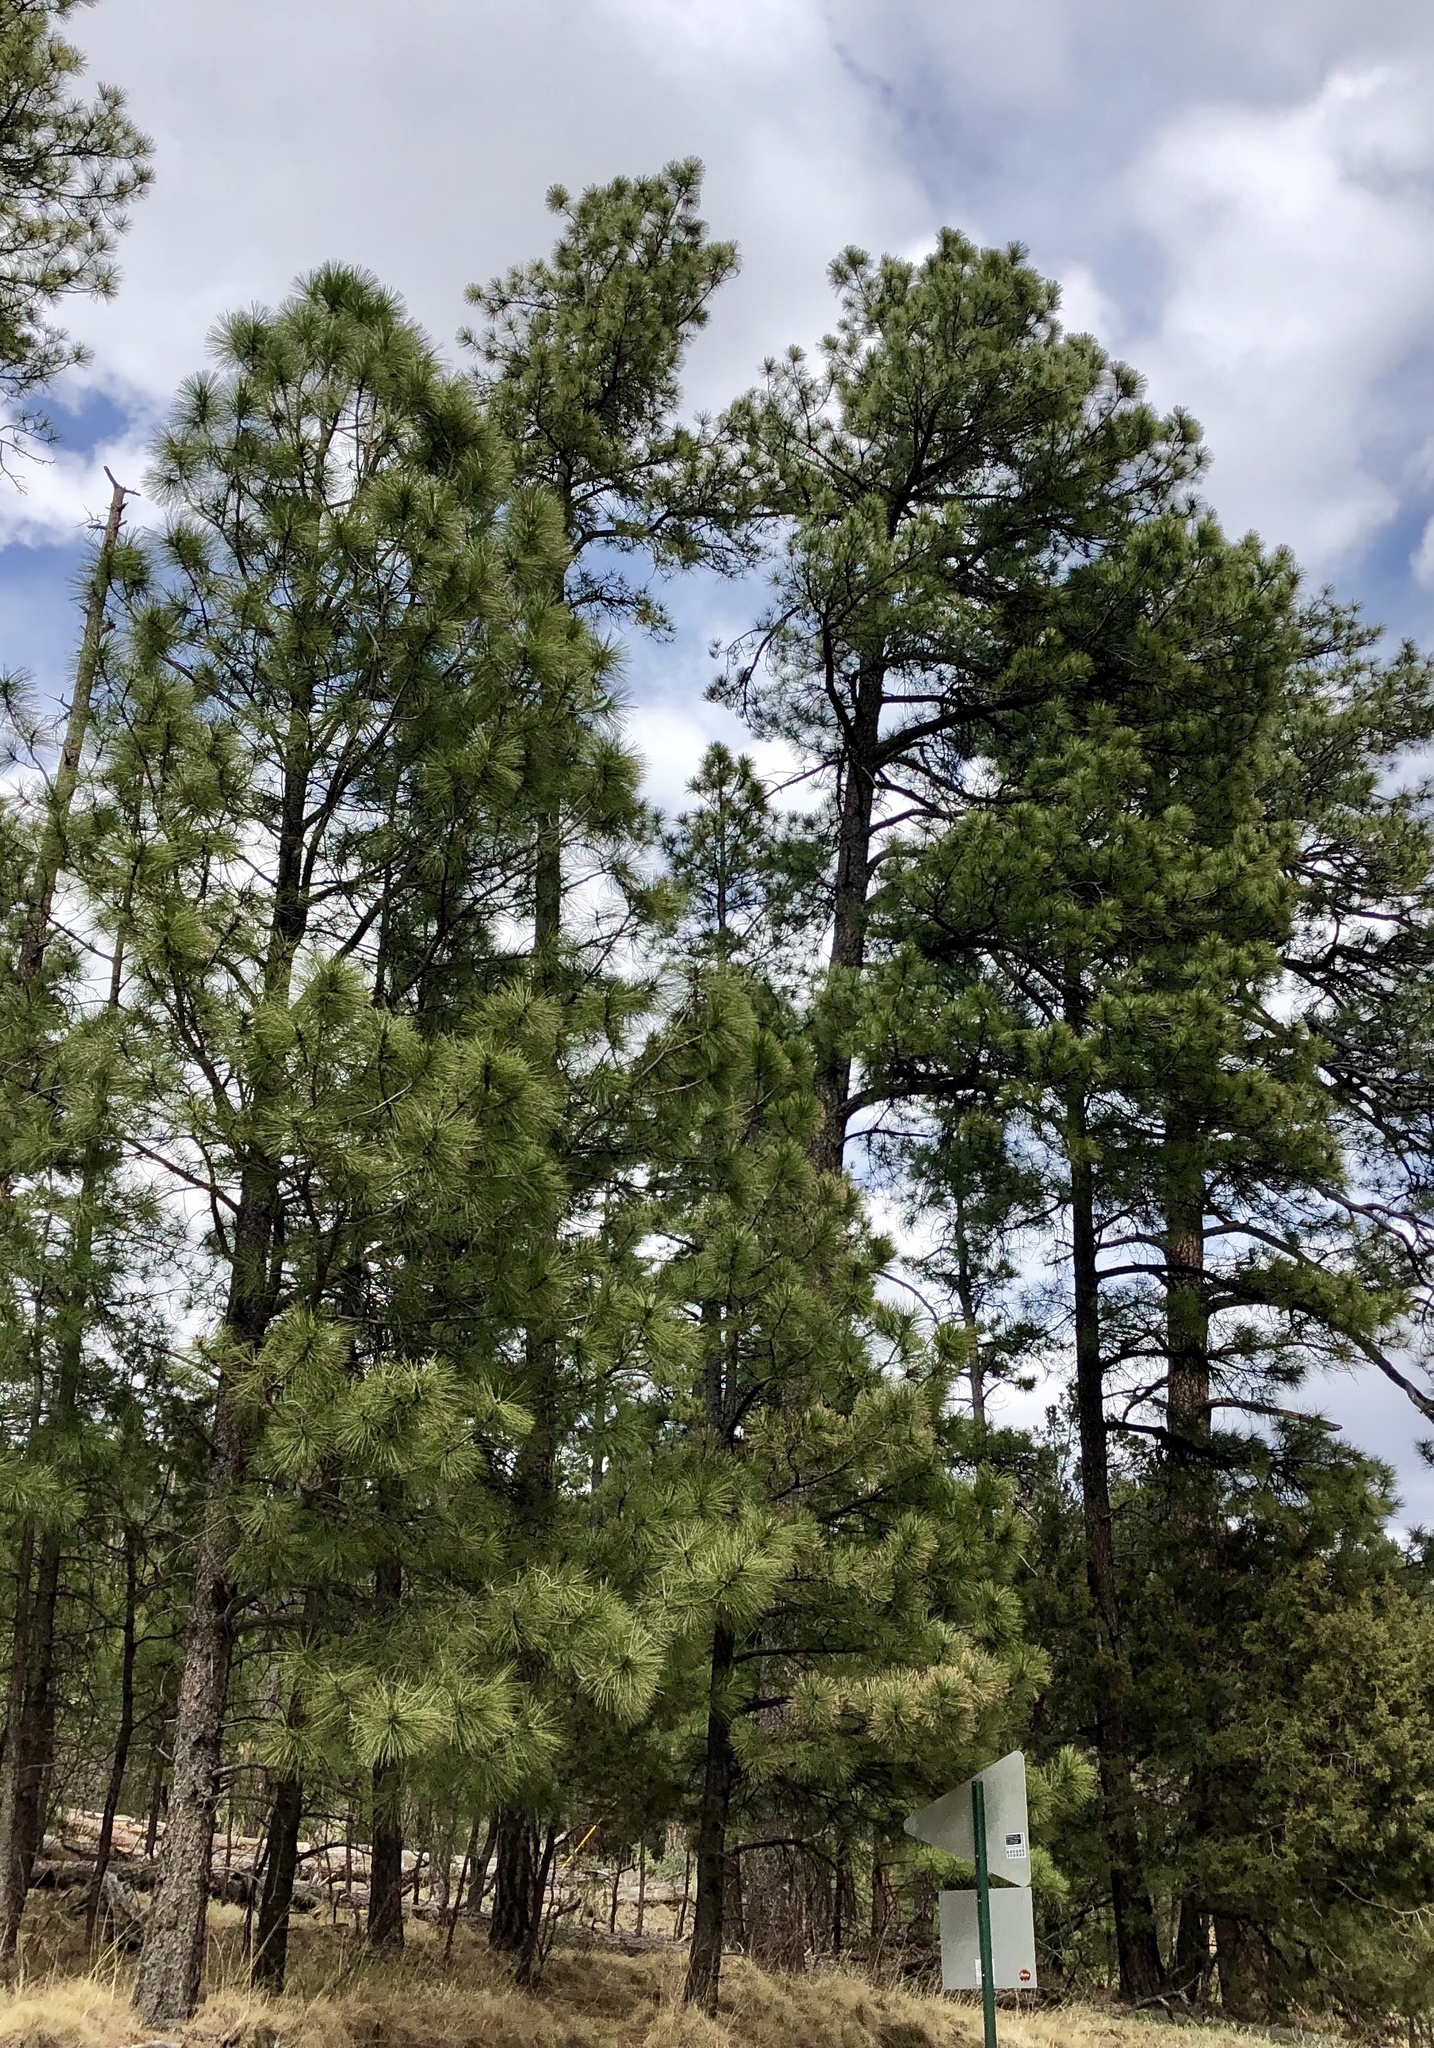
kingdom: Plantae
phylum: Tracheophyta
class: Pinopsida
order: Pinales
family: Pinaceae
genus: Pinus
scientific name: Pinus ponderosa
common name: Western yellow-pine
